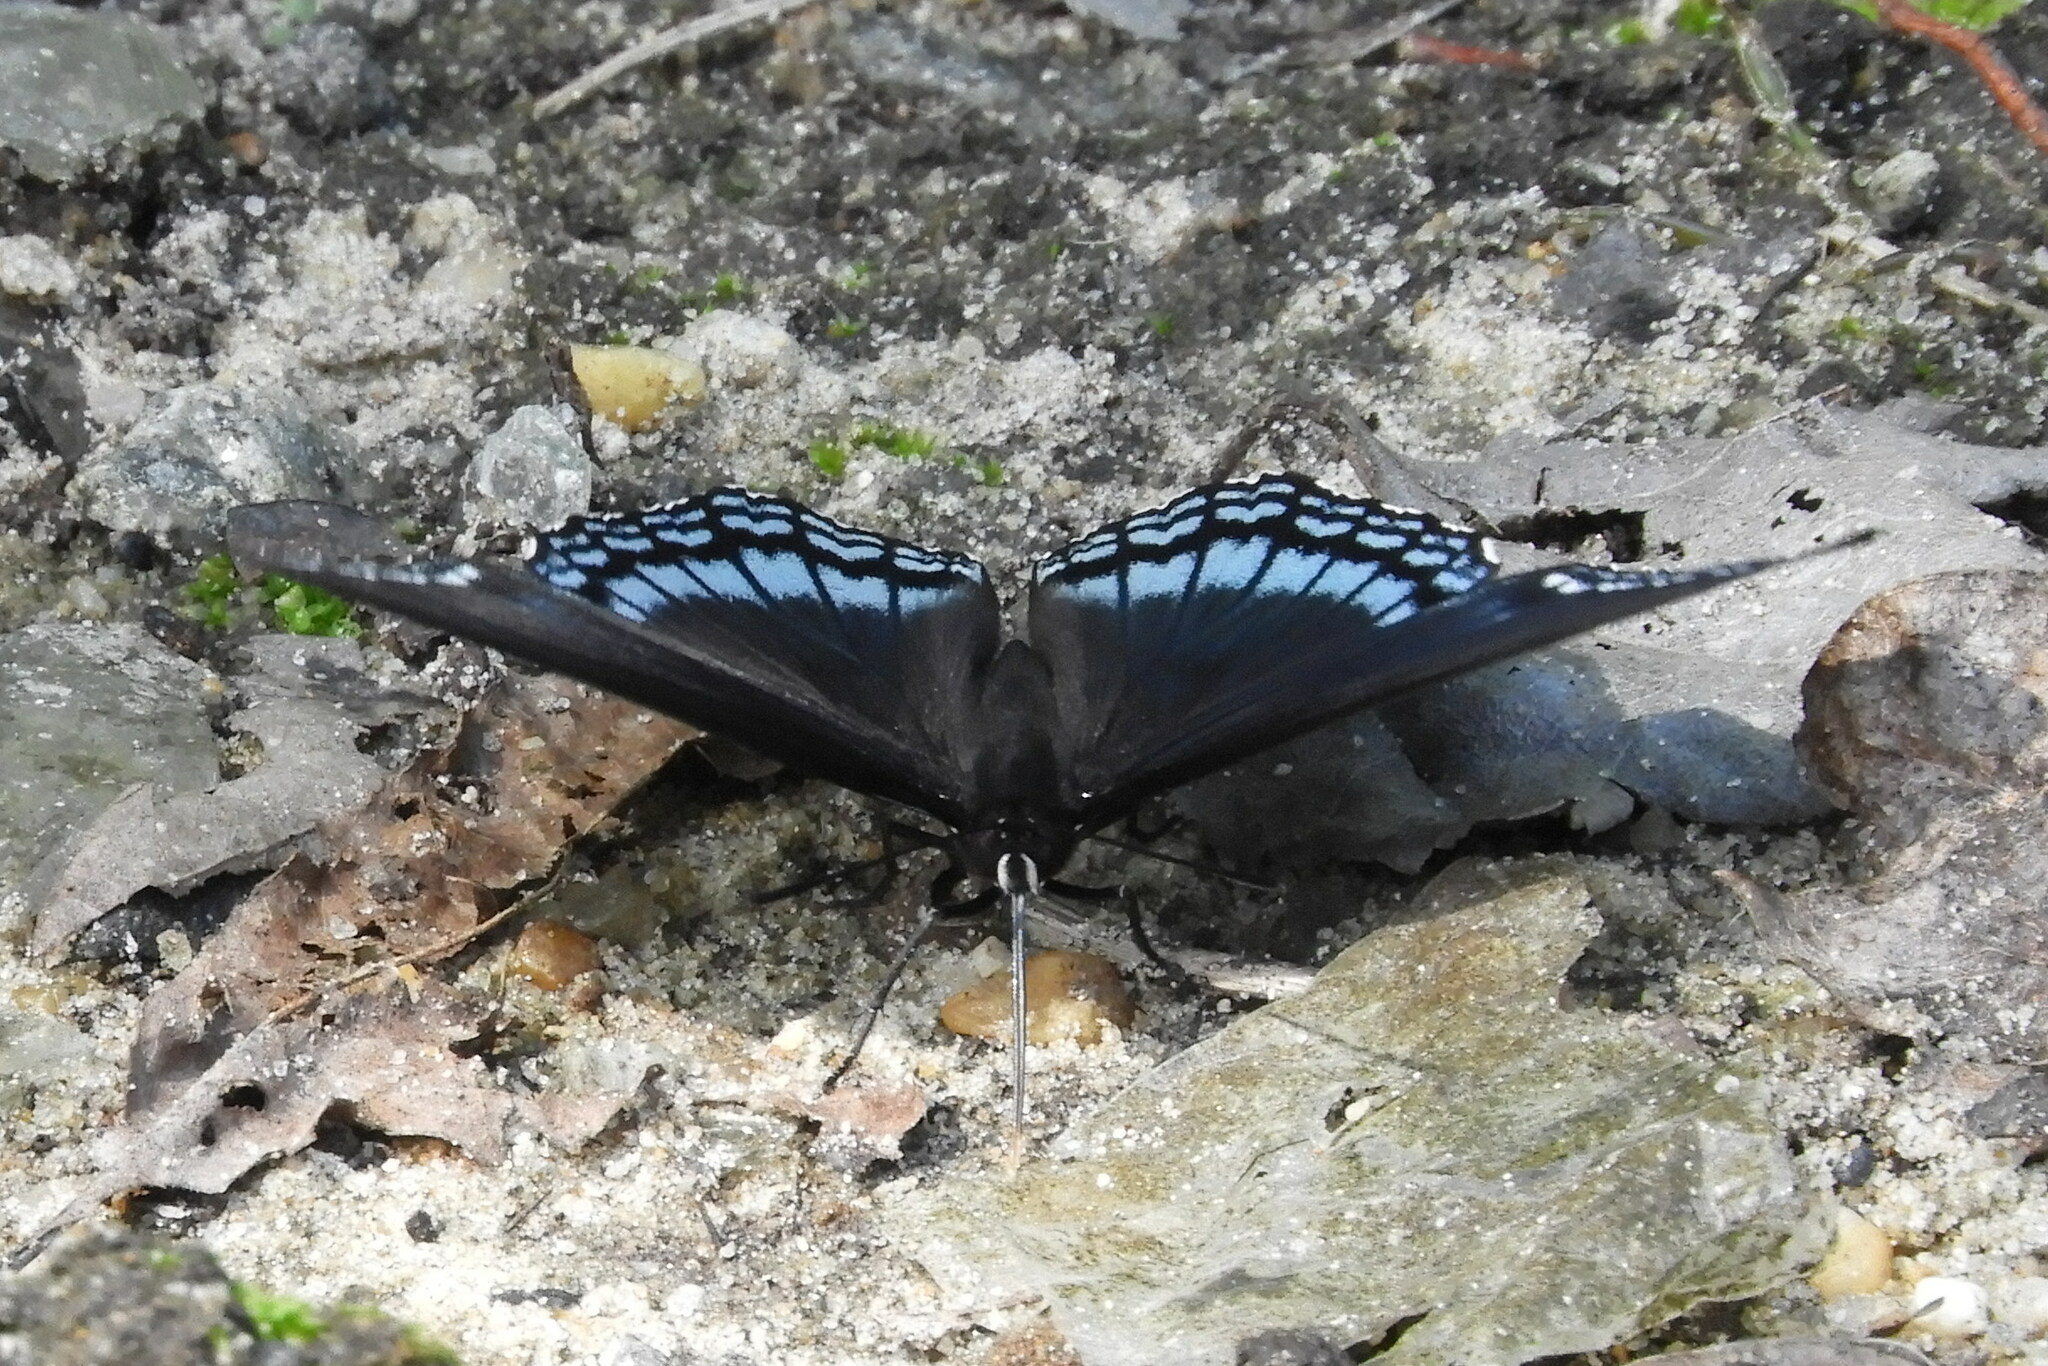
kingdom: Animalia
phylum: Arthropoda
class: Insecta
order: Lepidoptera
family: Nymphalidae
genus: Limenitis
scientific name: Limenitis astyanax
